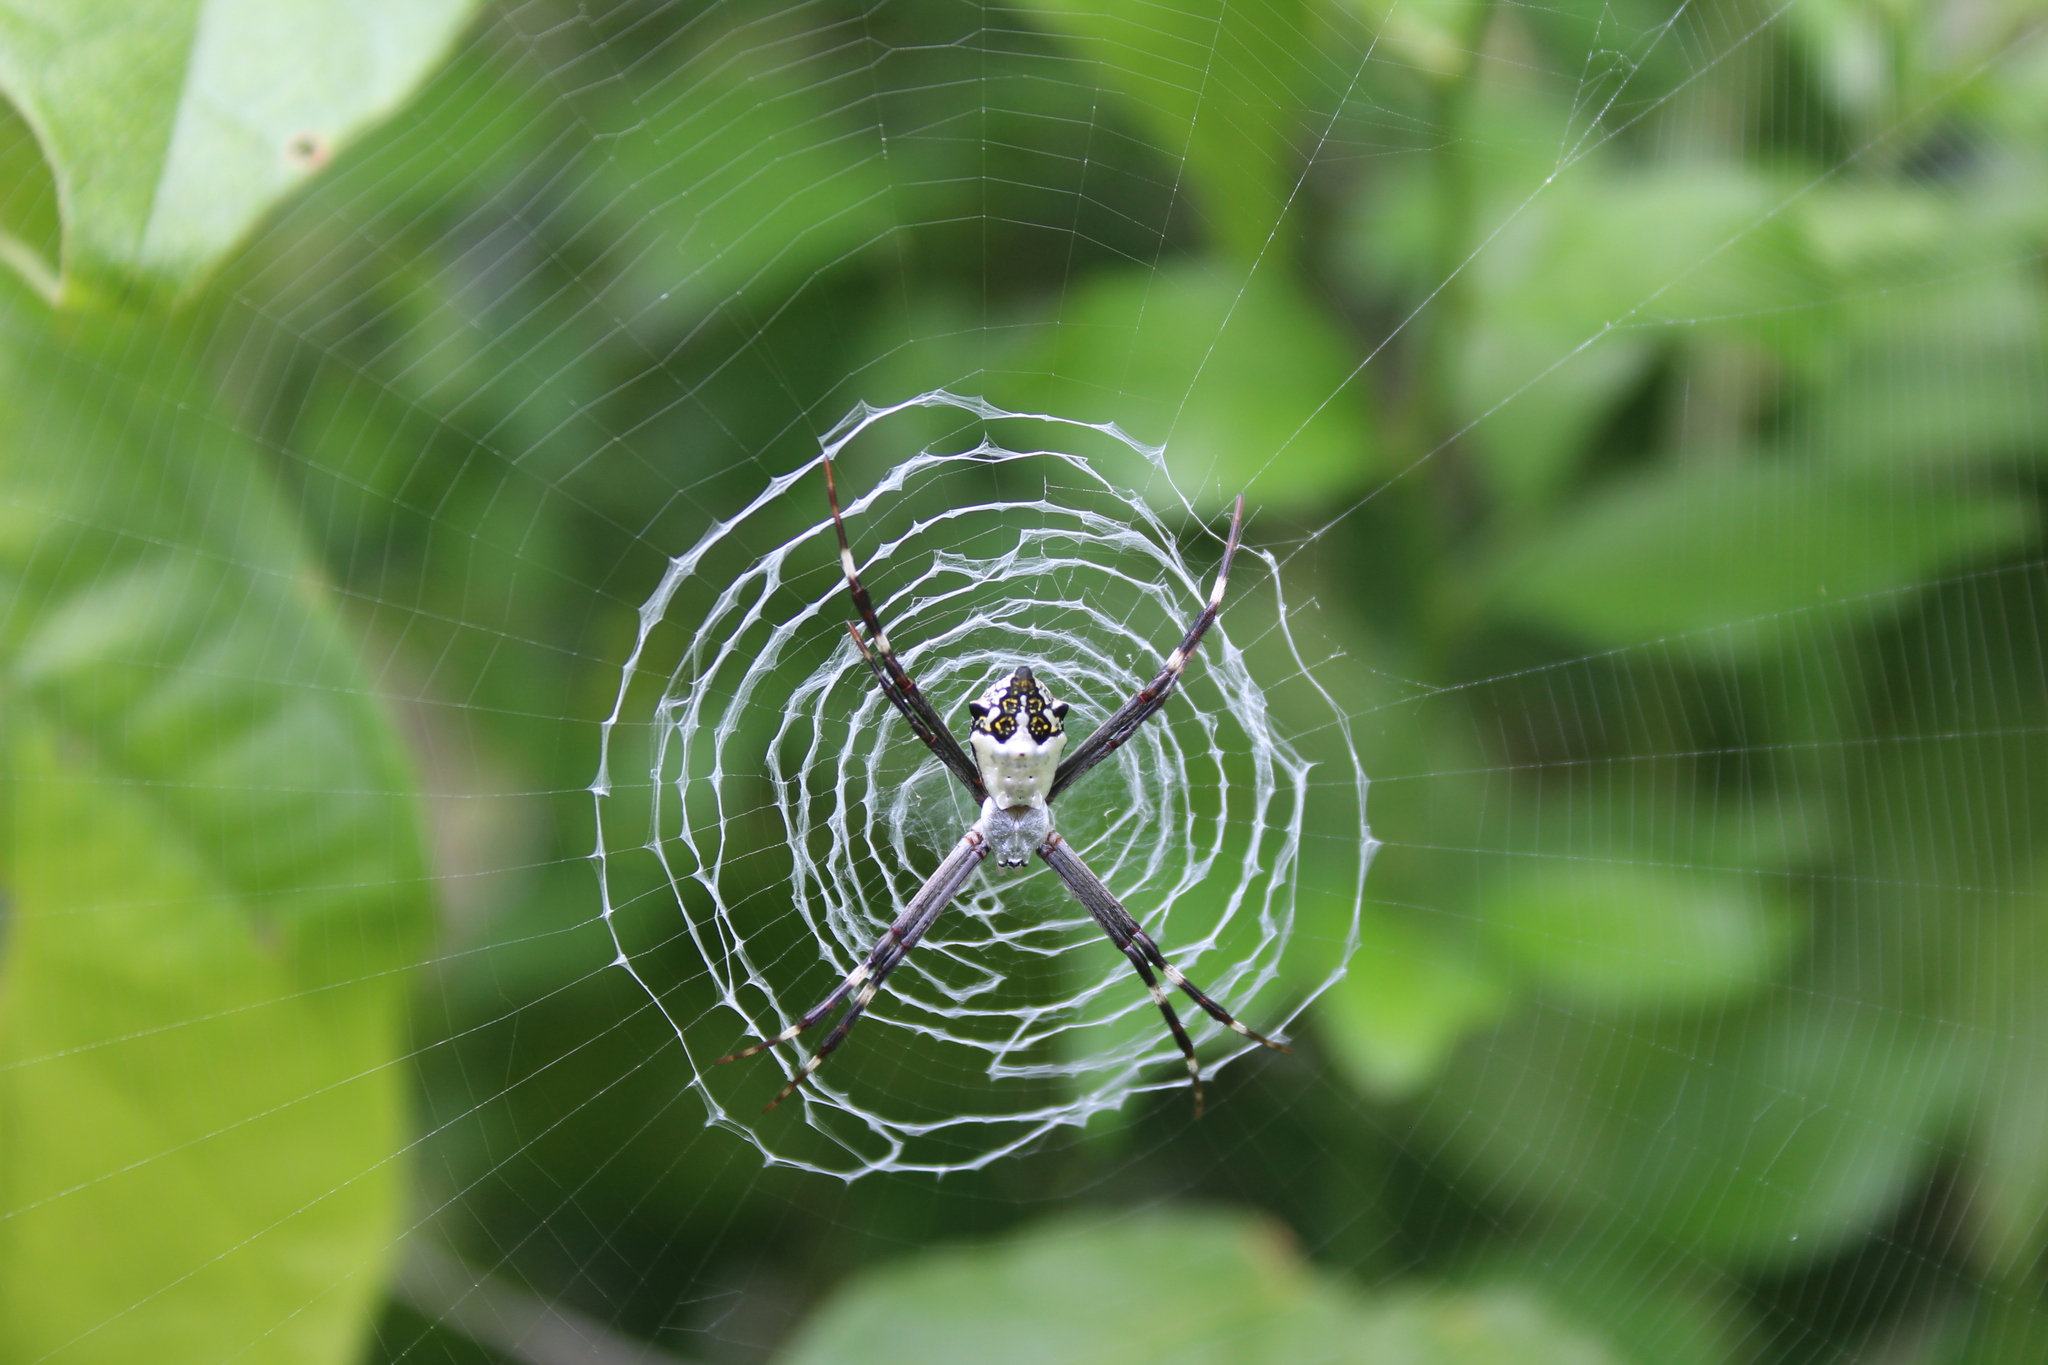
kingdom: Animalia
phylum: Arthropoda
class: Arachnida
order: Araneae
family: Araneidae
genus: Argiope
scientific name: Argiope argentata
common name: Orb weavers
